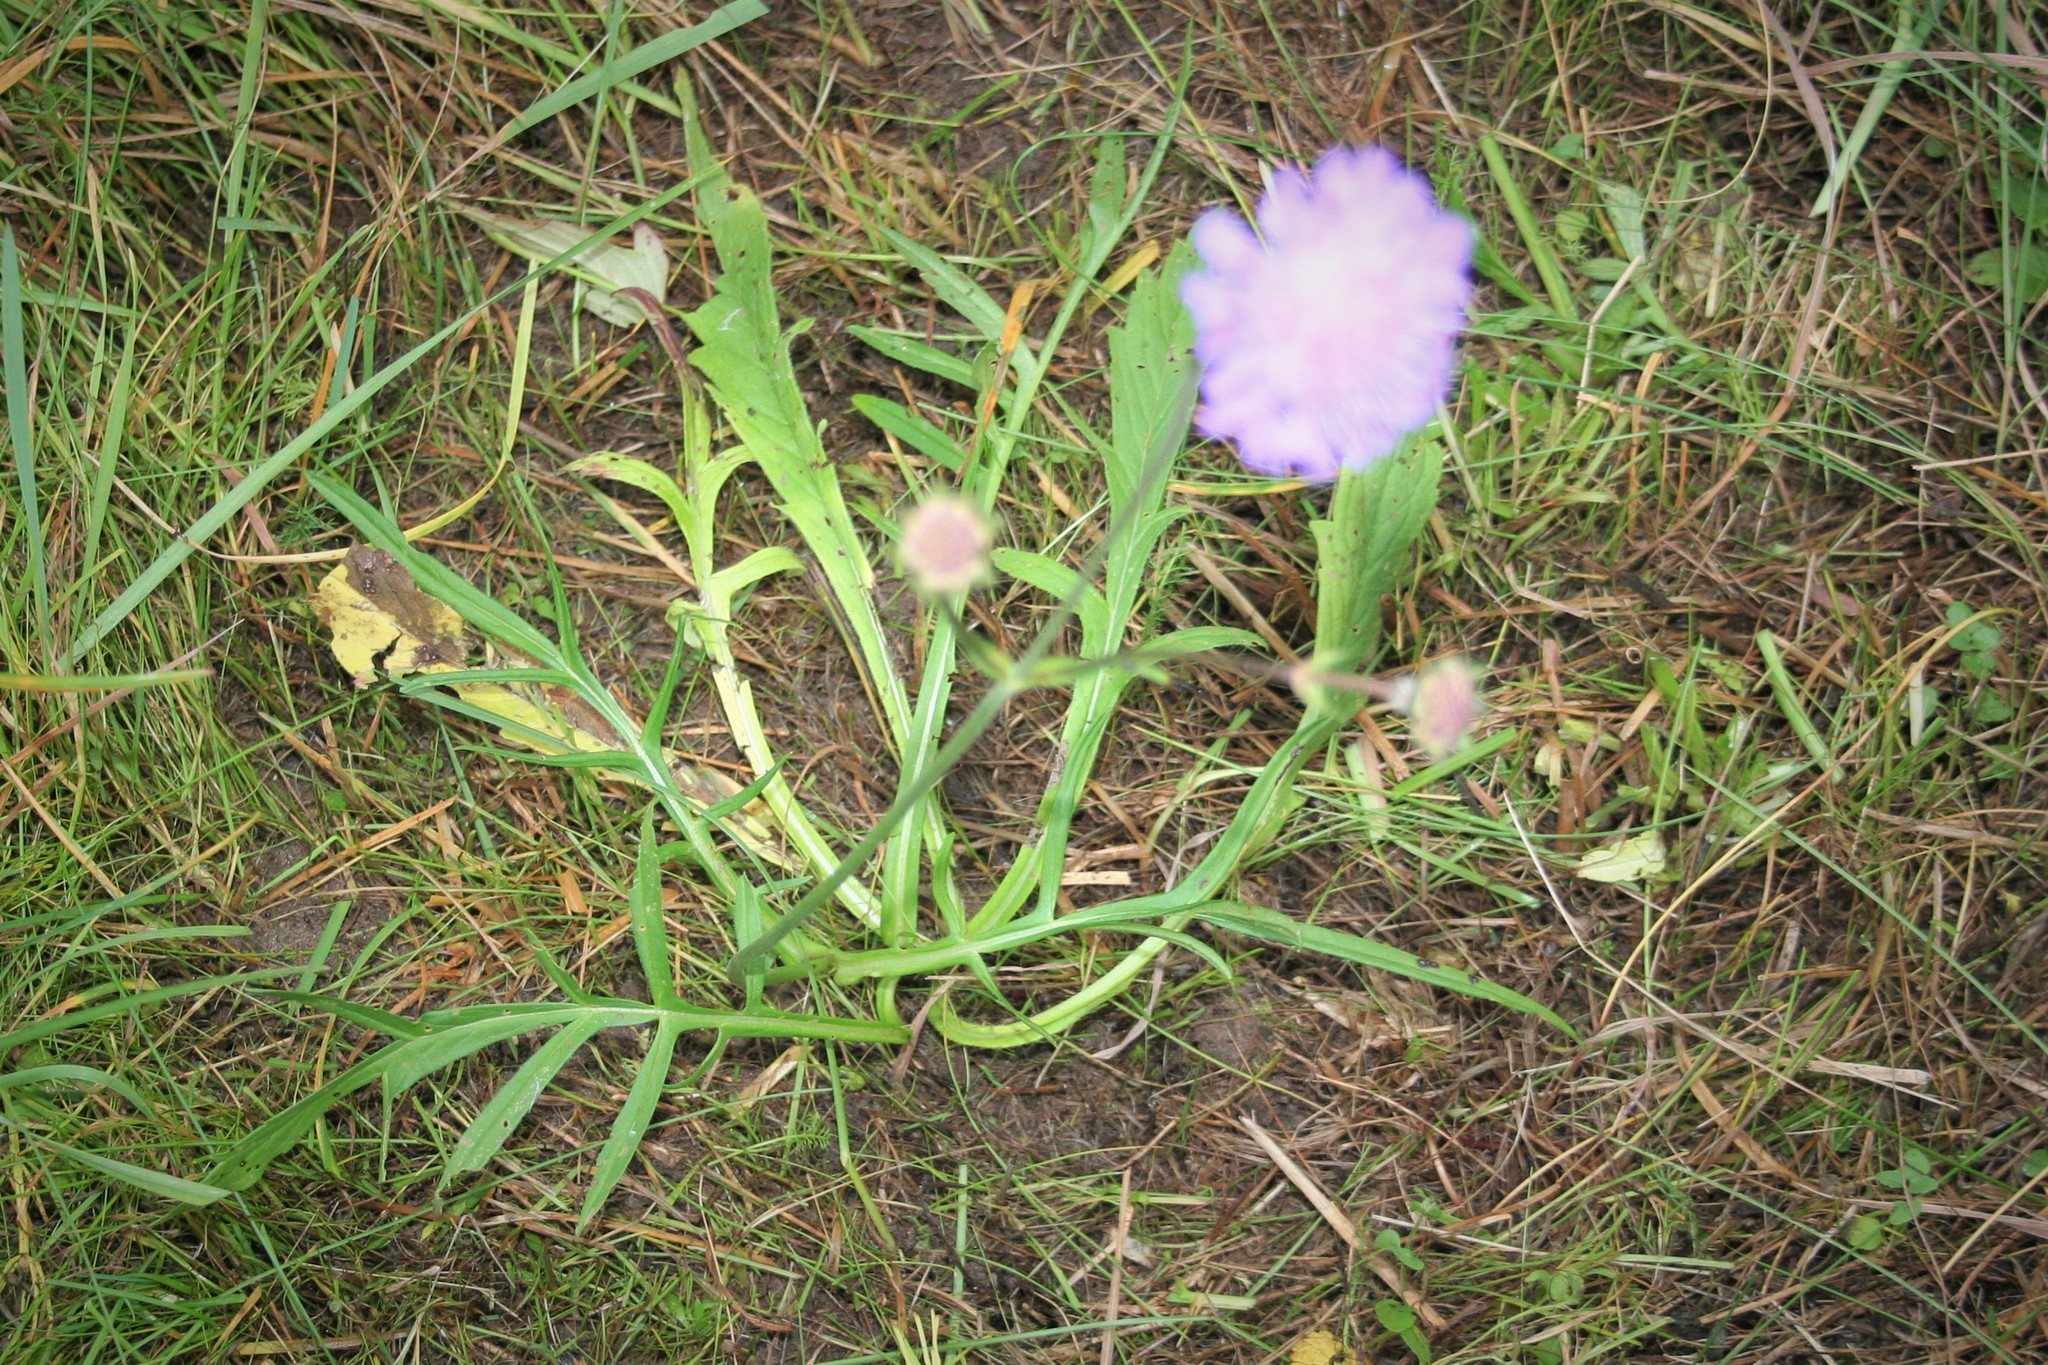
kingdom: Plantae
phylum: Tracheophyta
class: Magnoliopsida
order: Dipsacales
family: Caprifoliaceae
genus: Knautia
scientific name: Knautia arvensis
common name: Field scabiosa
